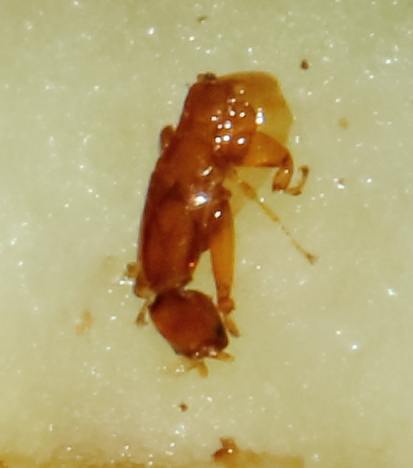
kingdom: Animalia
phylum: Arthropoda
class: Insecta
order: Hymenoptera
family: Agaonidae
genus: Elisabethiella
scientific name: Elisabethiella comptoni
